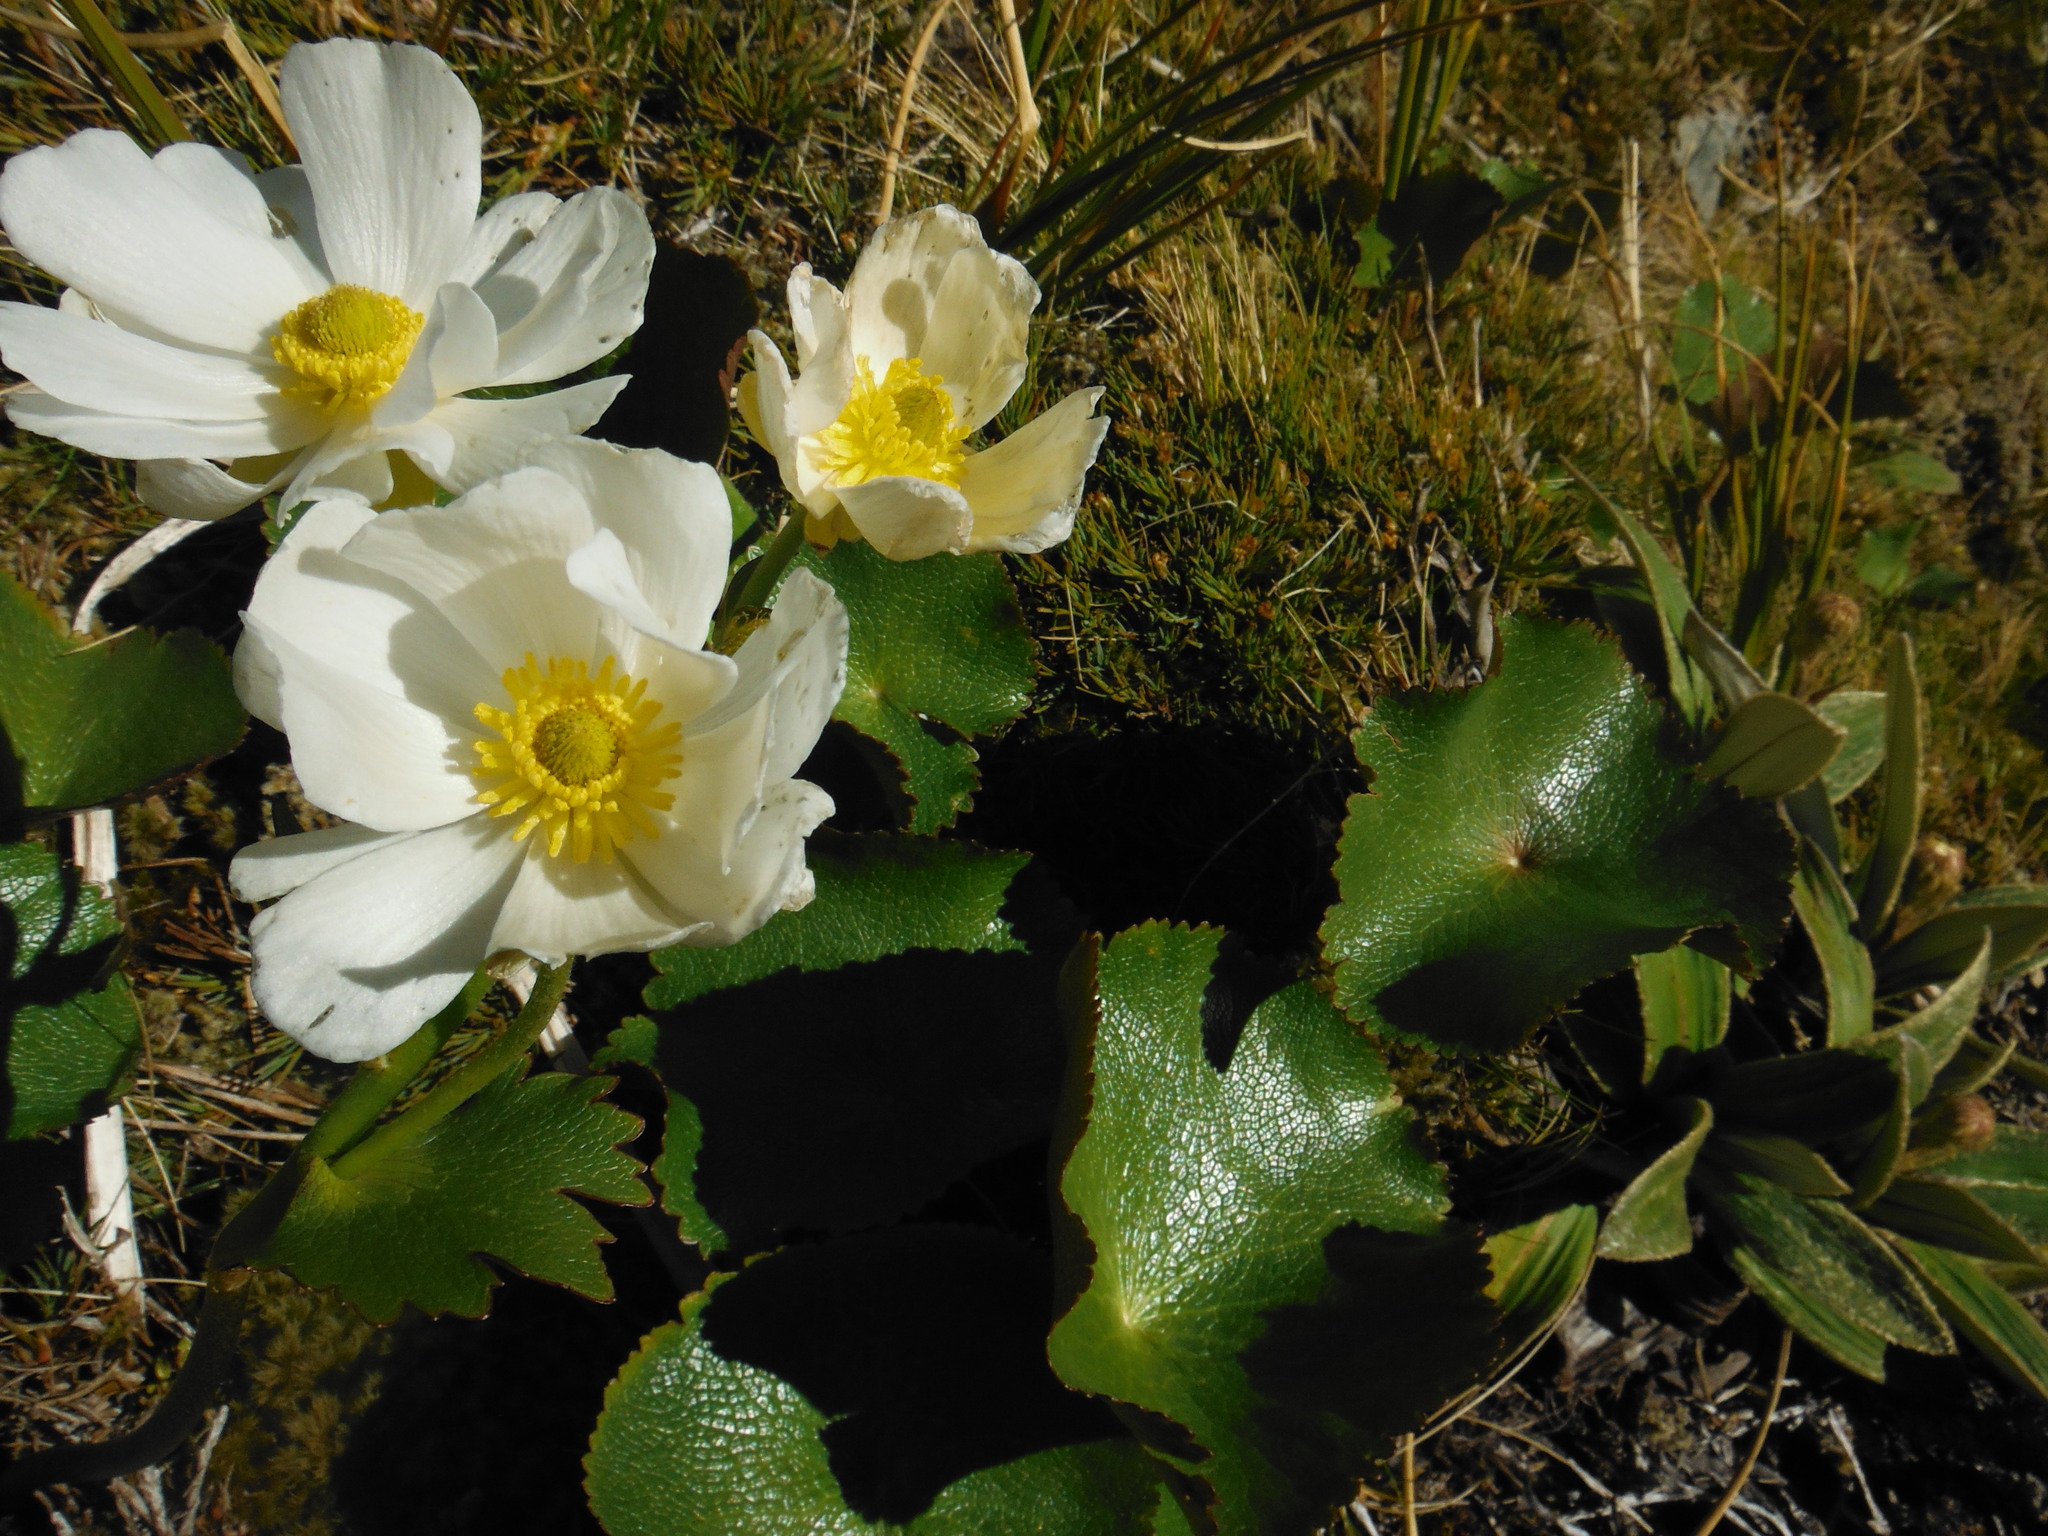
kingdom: Plantae
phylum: Tracheophyta
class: Magnoliopsida
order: Ranunculales
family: Ranunculaceae
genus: Ranunculus
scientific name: Ranunculus lyallii
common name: Mountain-lily
